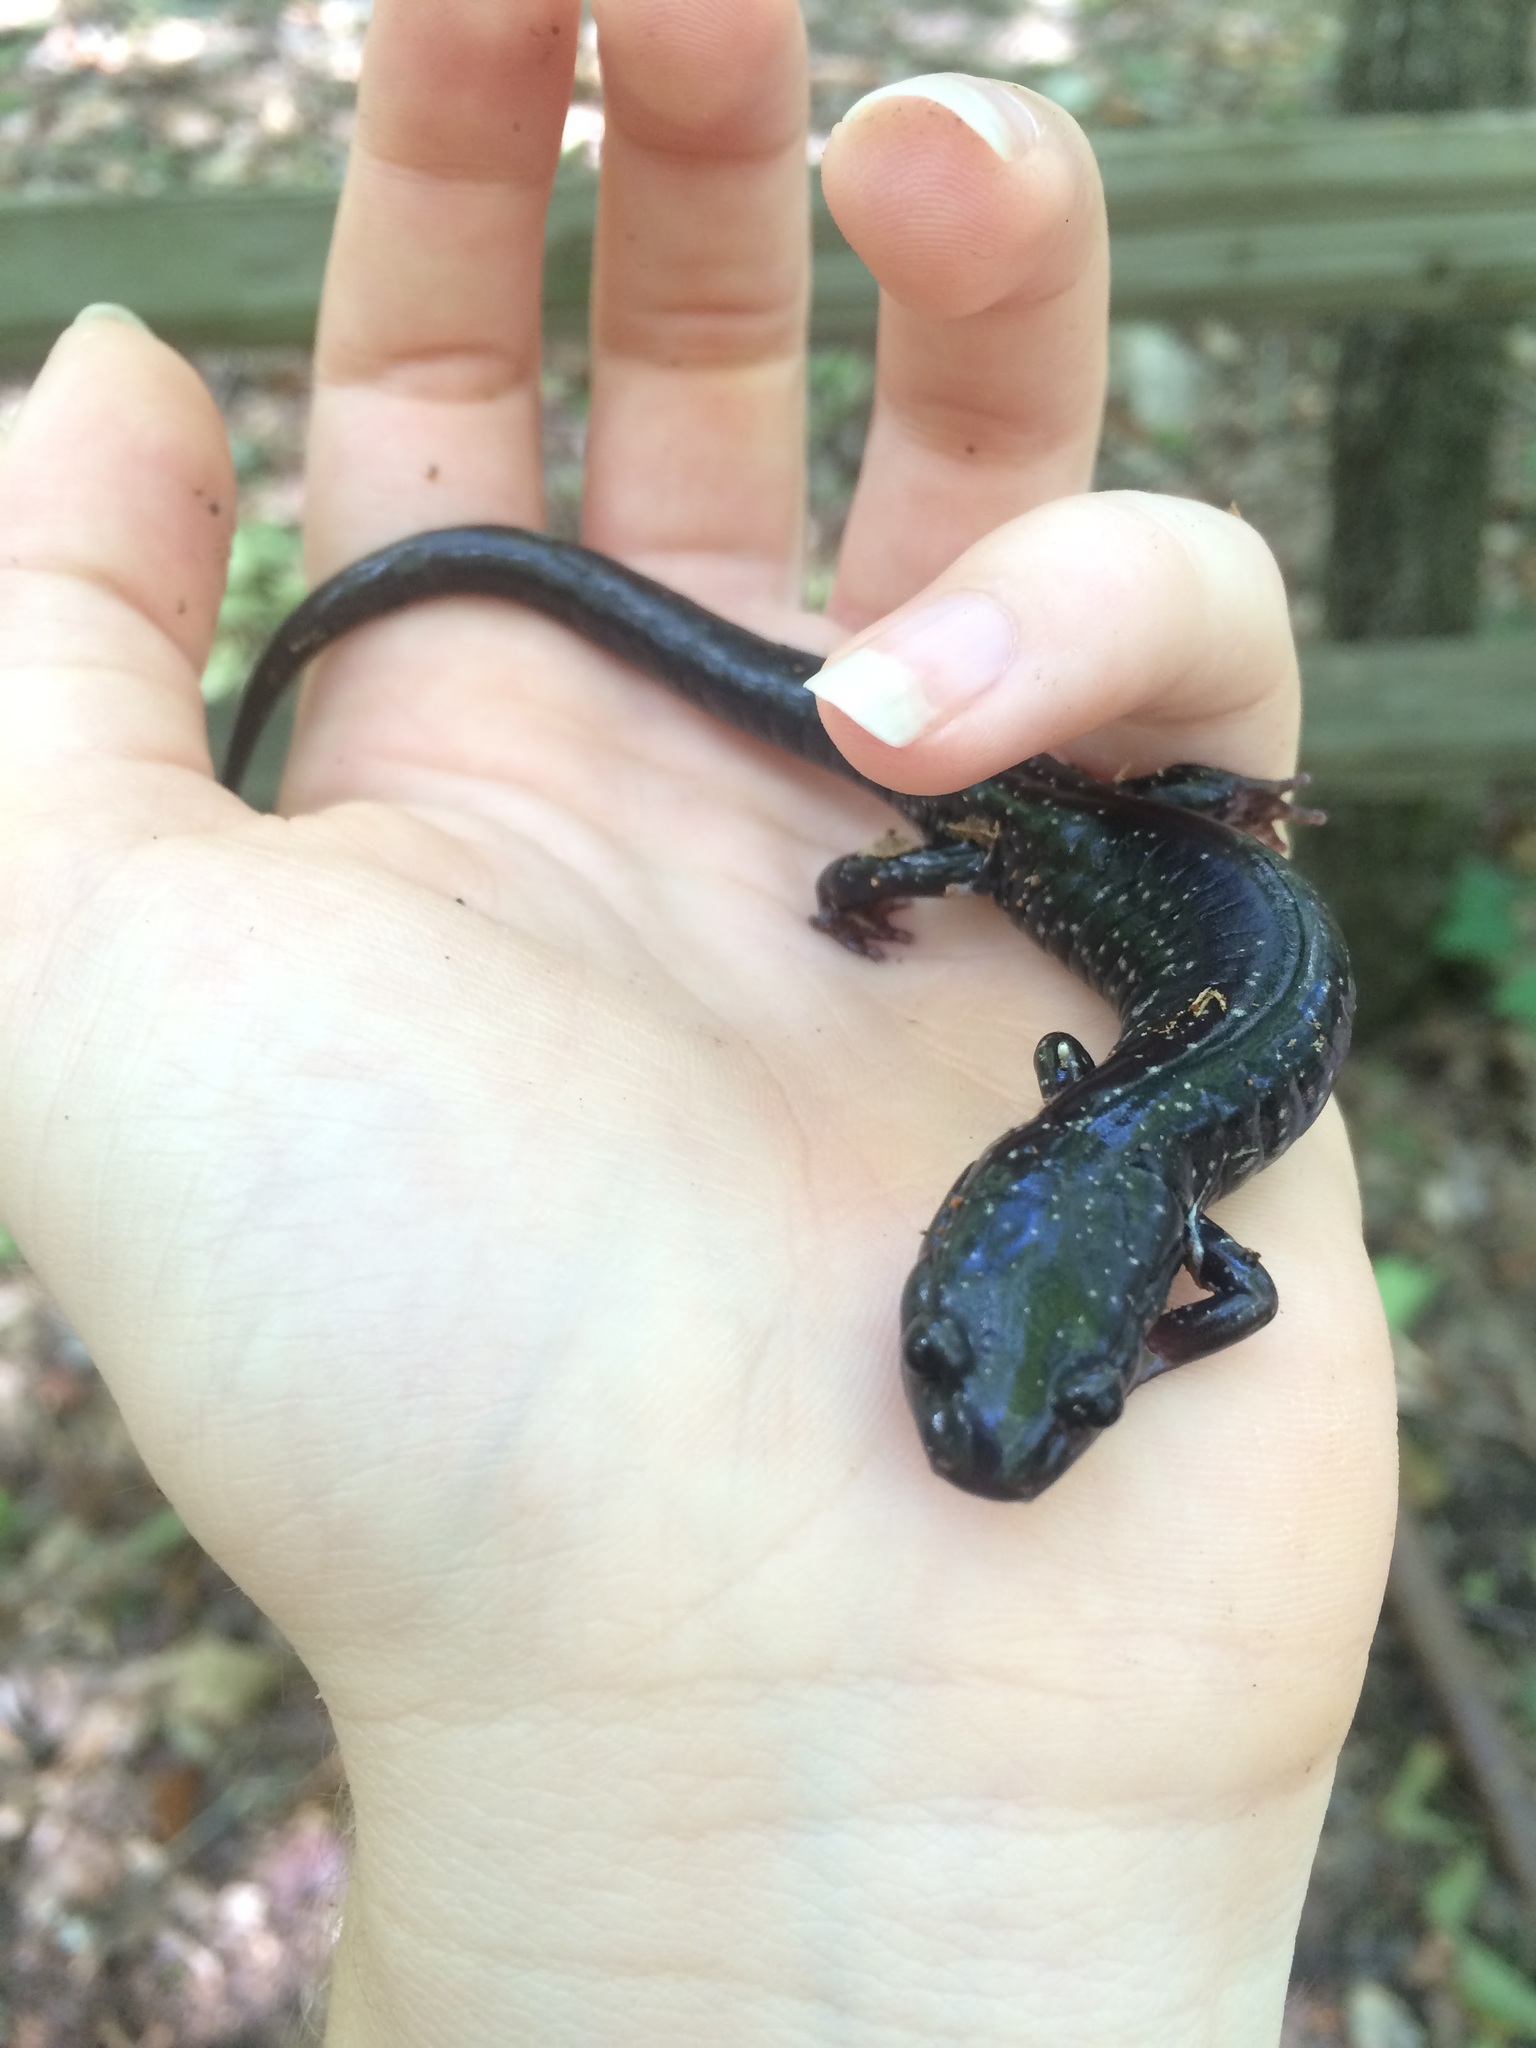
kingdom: Animalia
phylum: Chordata
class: Amphibia
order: Caudata
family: Plethodontidae
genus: Plethodon
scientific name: Plethodon cylindraceus
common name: White-spotted slimy salamander
